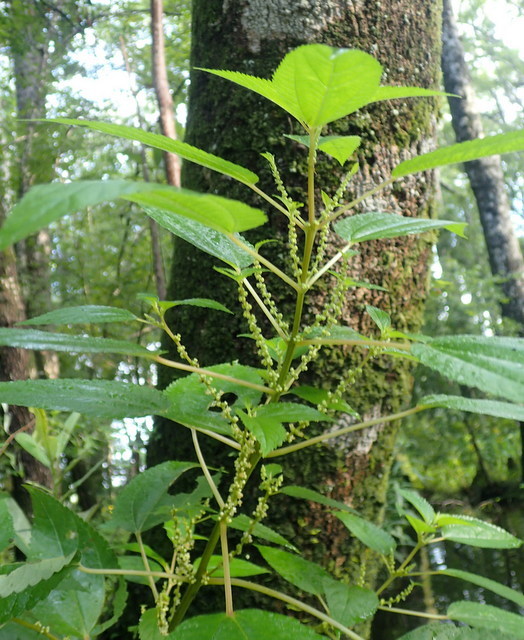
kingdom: Plantae
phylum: Tracheophyta
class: Magnoliopsida
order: Rosales
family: Urticaceae
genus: Boehmeria
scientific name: Boehmeria cylindrica
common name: Bog-hemp
